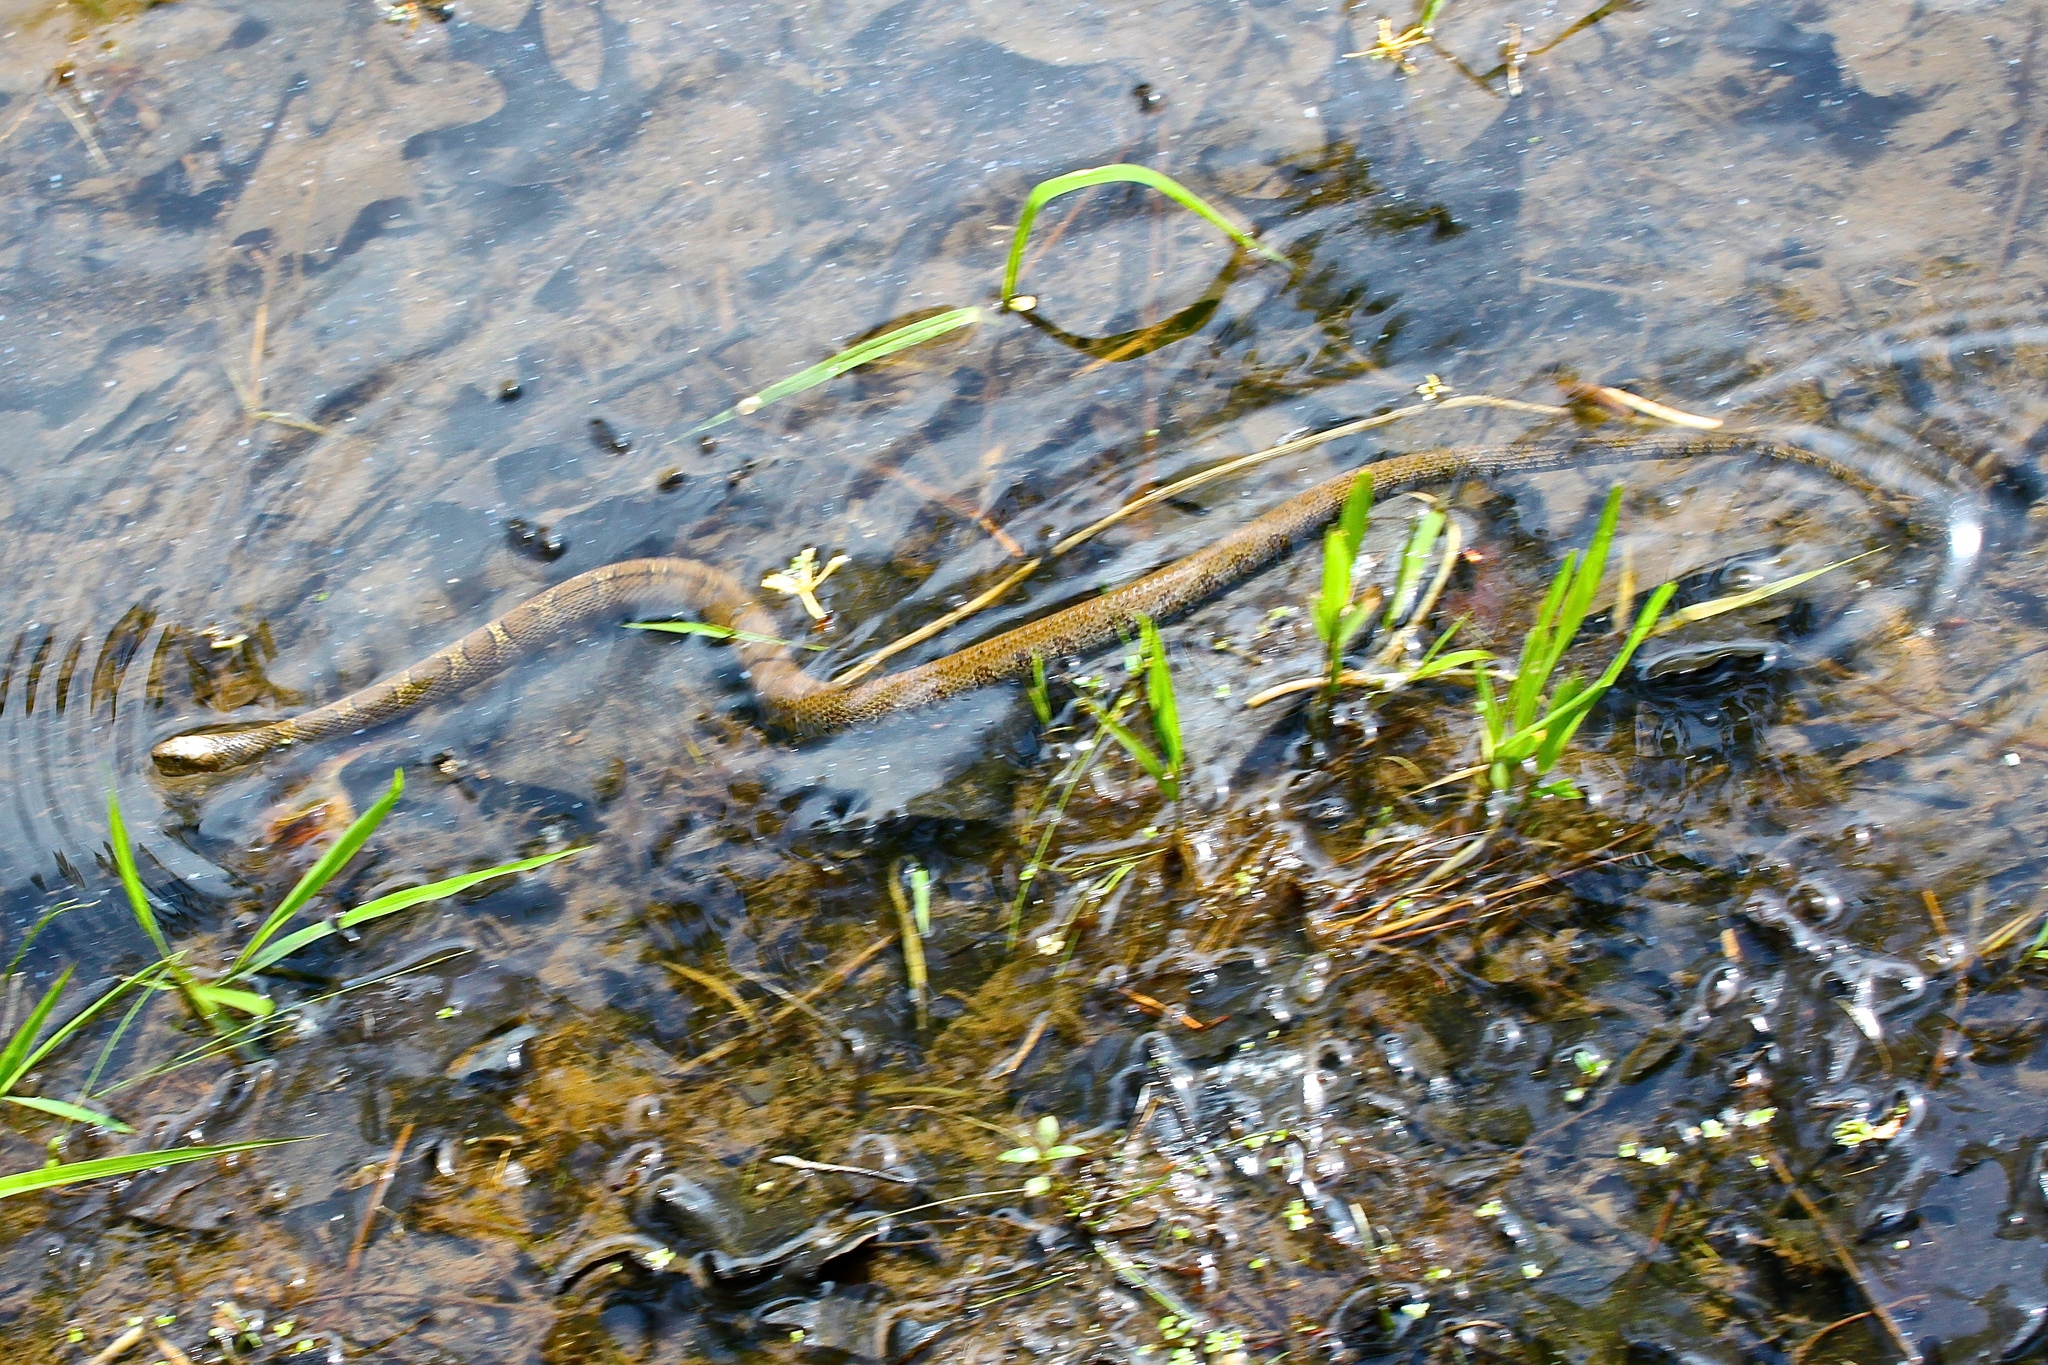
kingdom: Animalia
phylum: Chordata
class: Squamata
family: Colubridae
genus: Nerodia
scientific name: Nerodia sipedon
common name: Northern water snake
